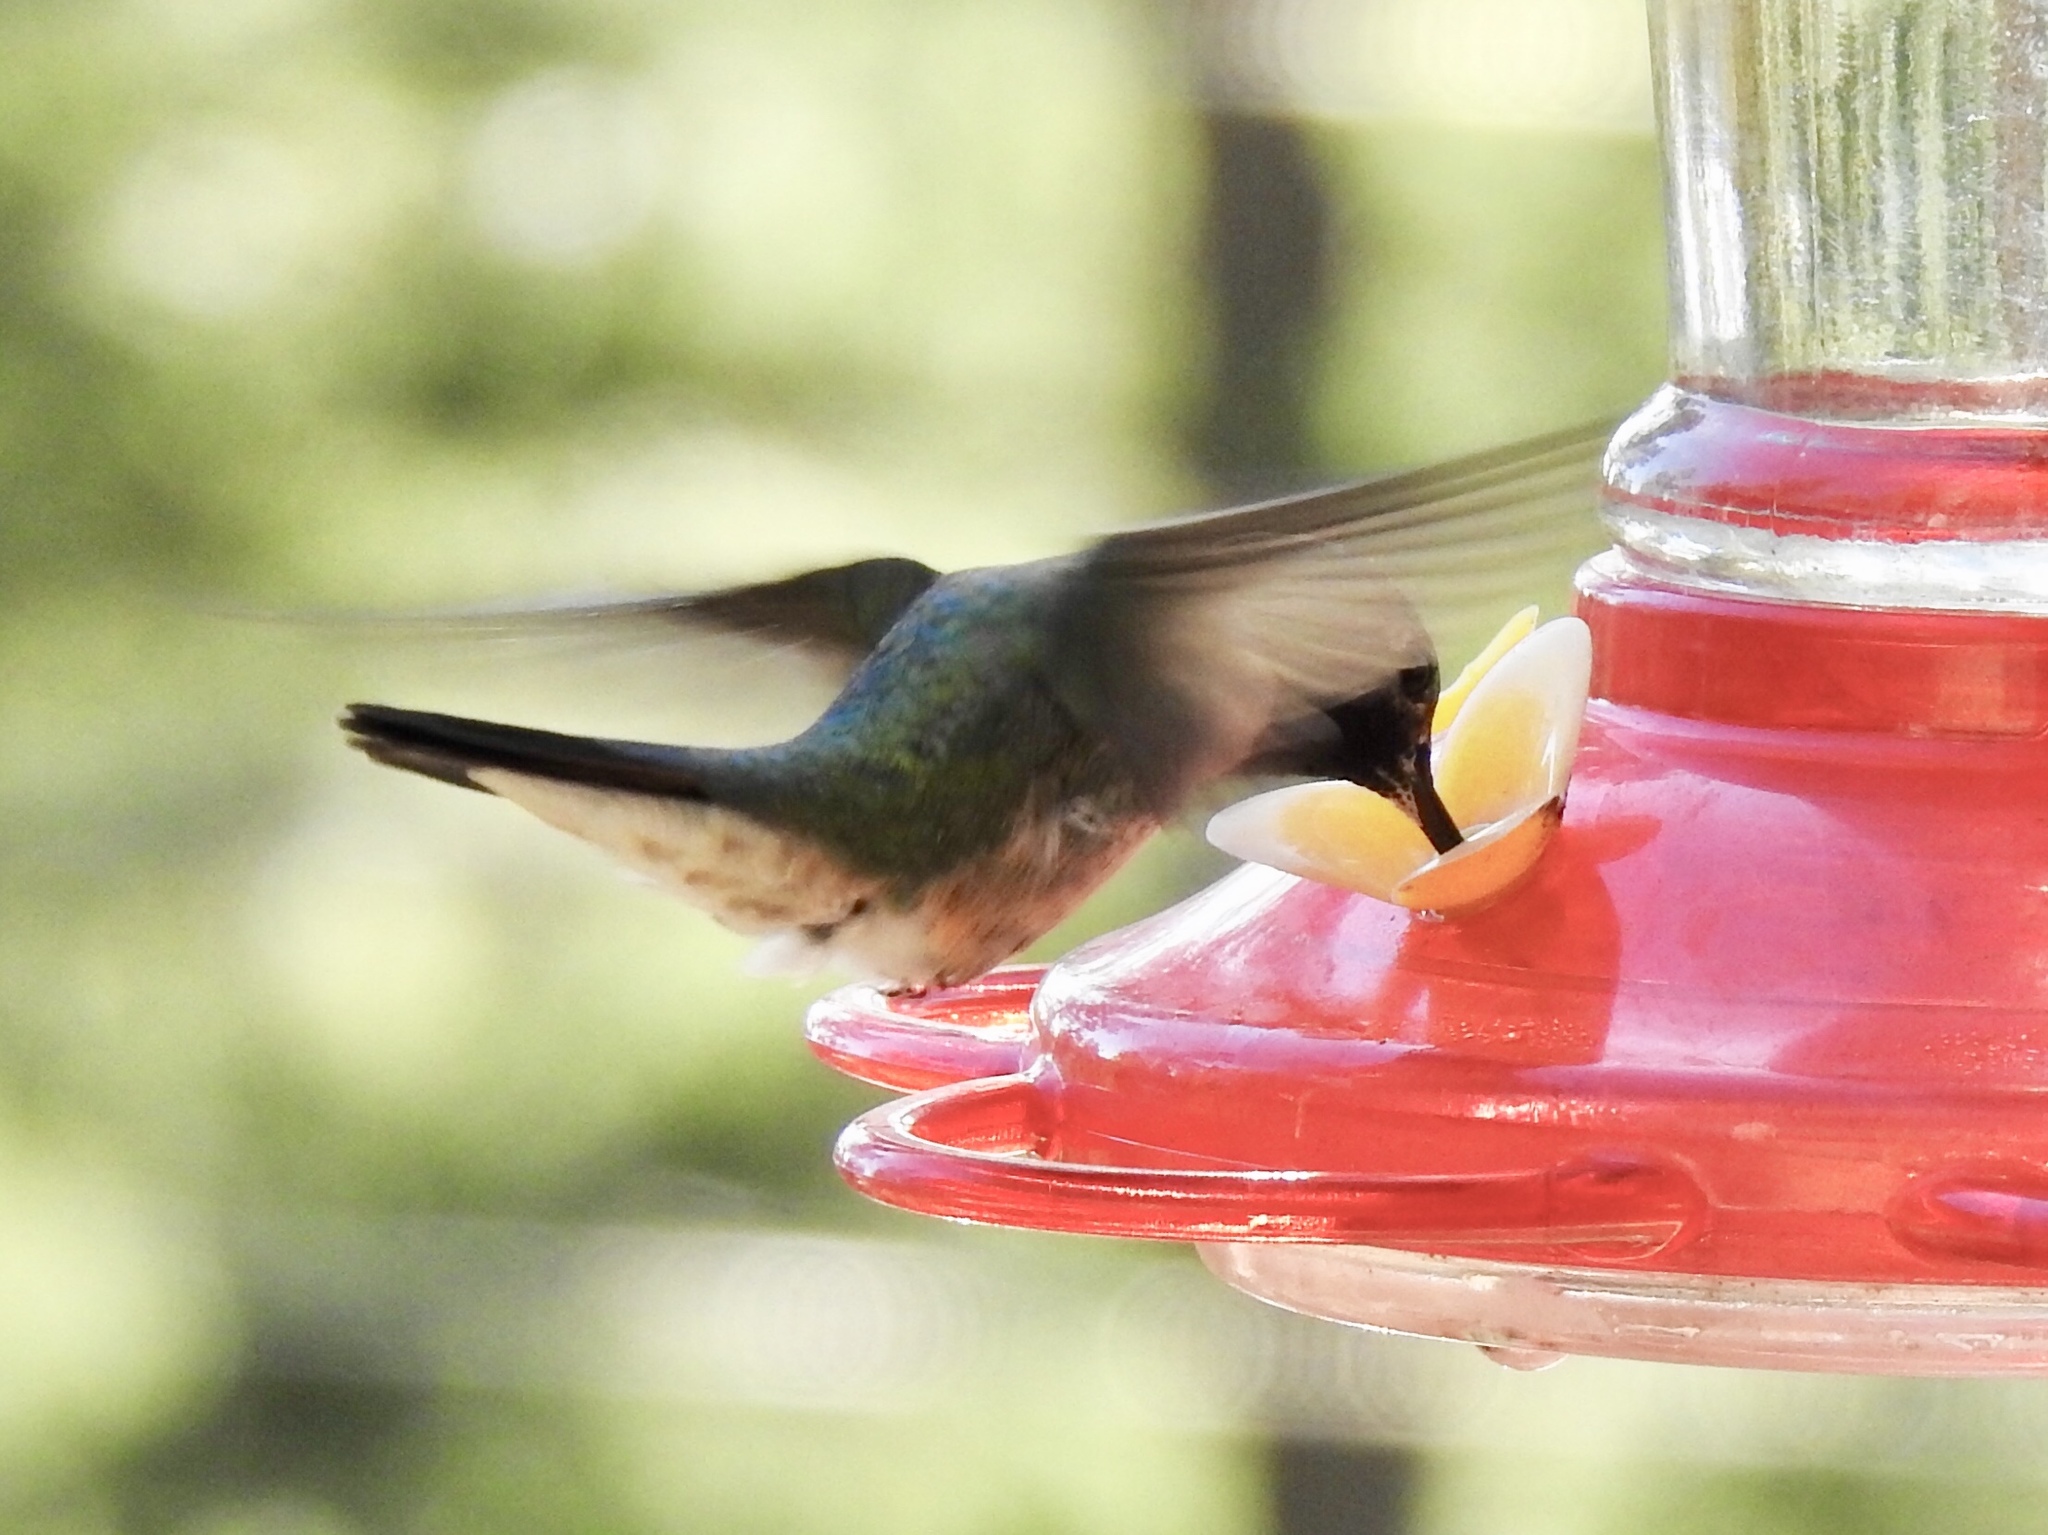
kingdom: Animalia
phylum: Chordata
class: Aves
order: Apodiformes
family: Trochilidae
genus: Selasphorus
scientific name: Selasphorus platycercus
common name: Broad-tailed hummingbird
